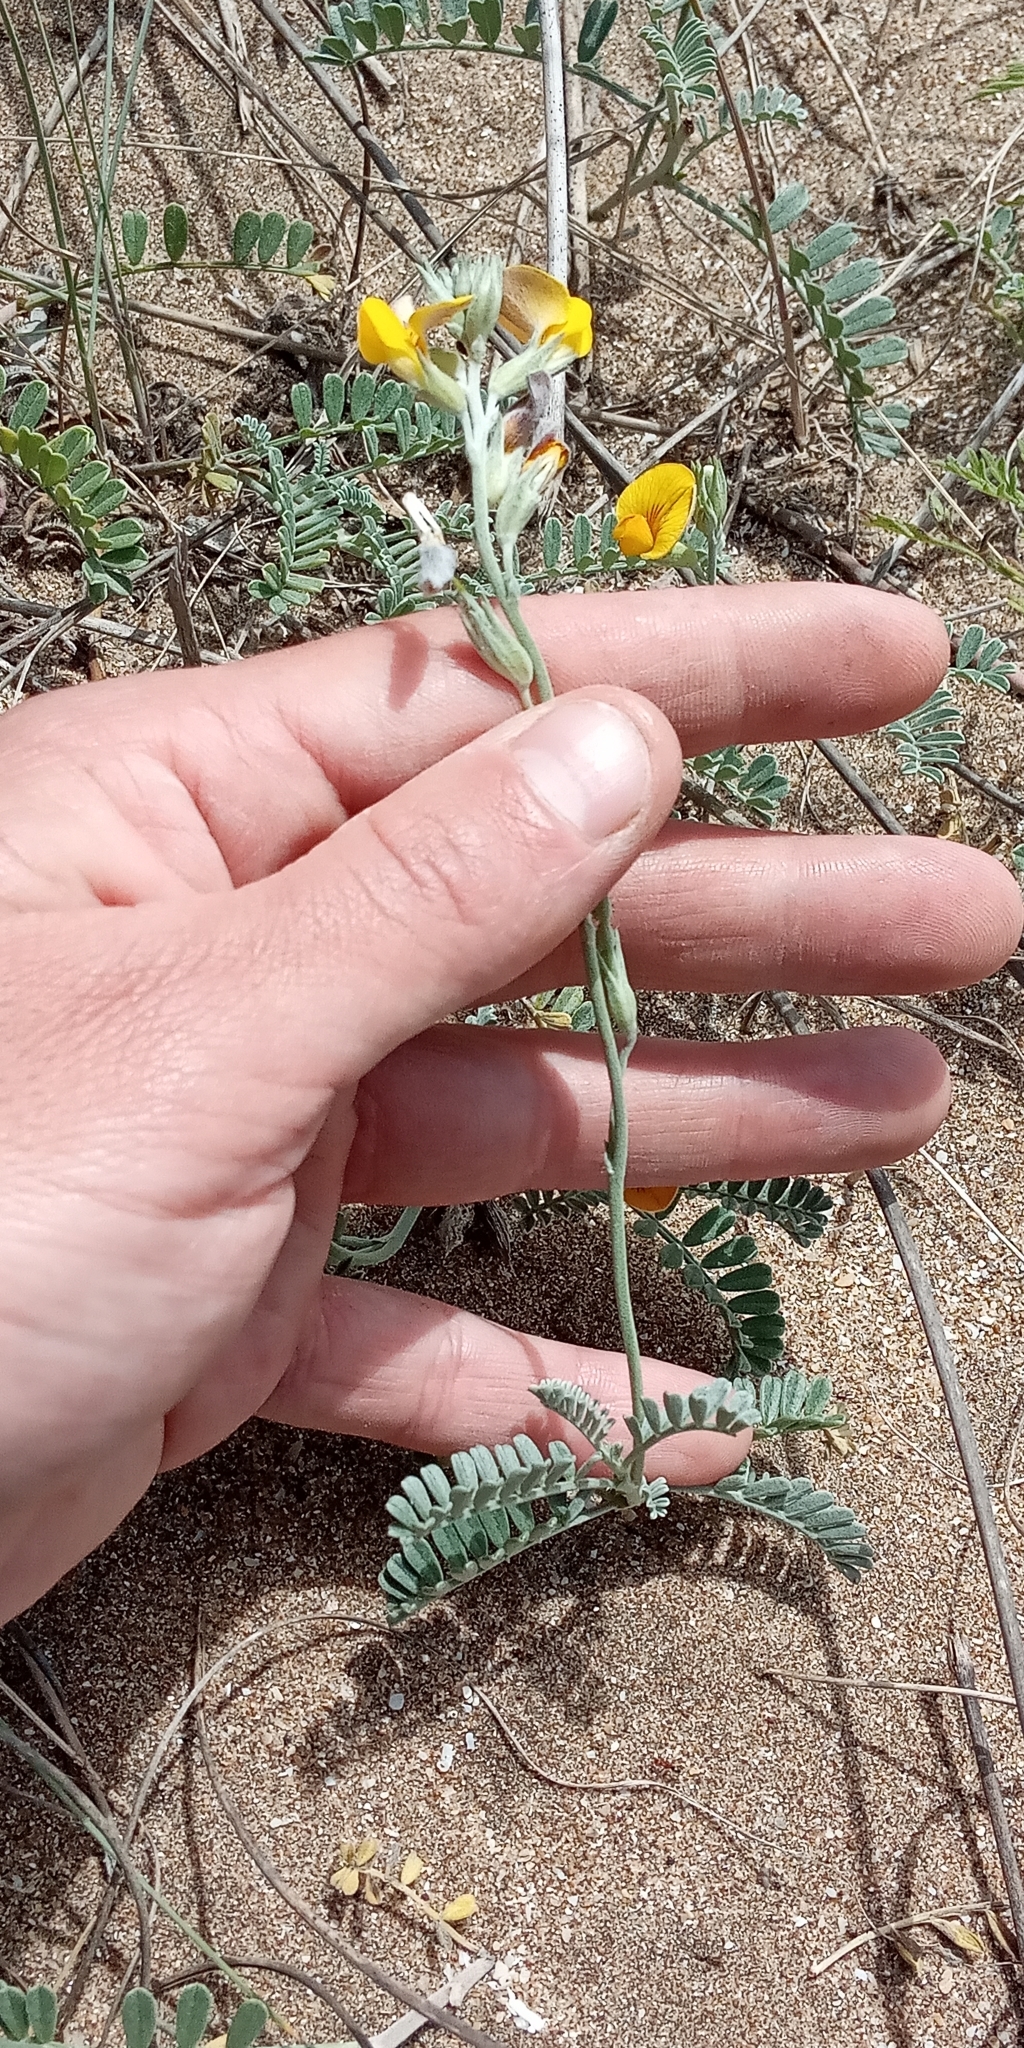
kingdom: Plantae
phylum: Tracheophyta
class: Magnoliopsida
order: Fabales
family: Fabaceae
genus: Adesmia
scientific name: Adesmia incana
